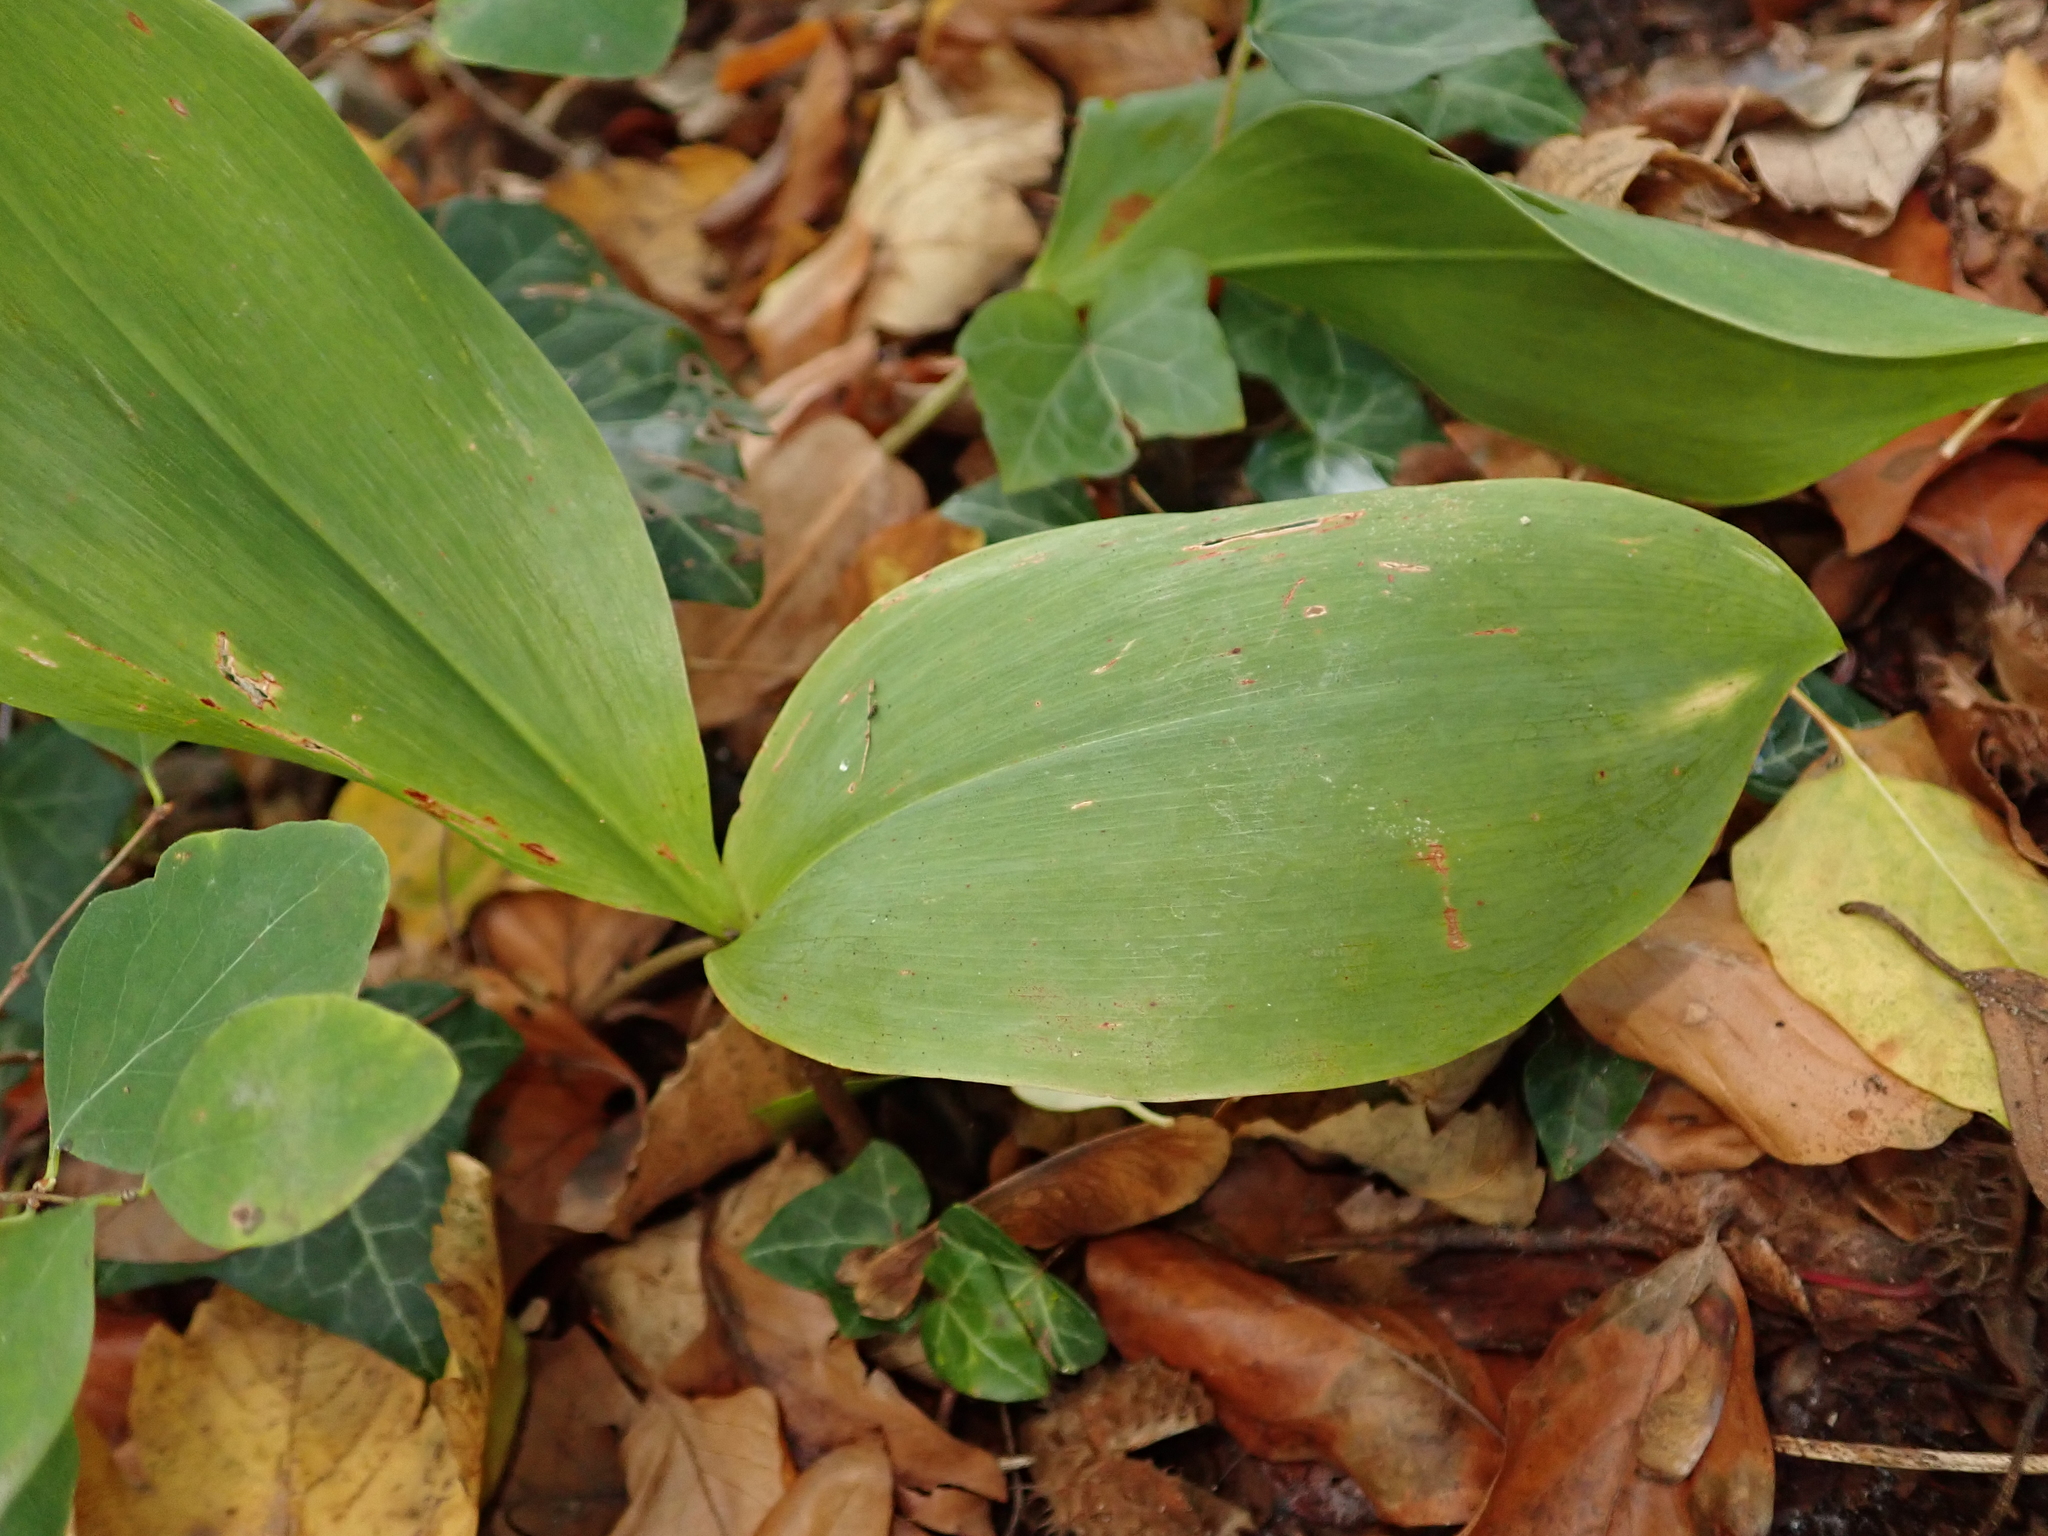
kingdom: Plantae
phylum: Tracheophyta
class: Liliopsida
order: Asparagales
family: Asparagaceae
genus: Convallaria
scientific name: Convallaria majalis
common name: Lily-of-the-valley
